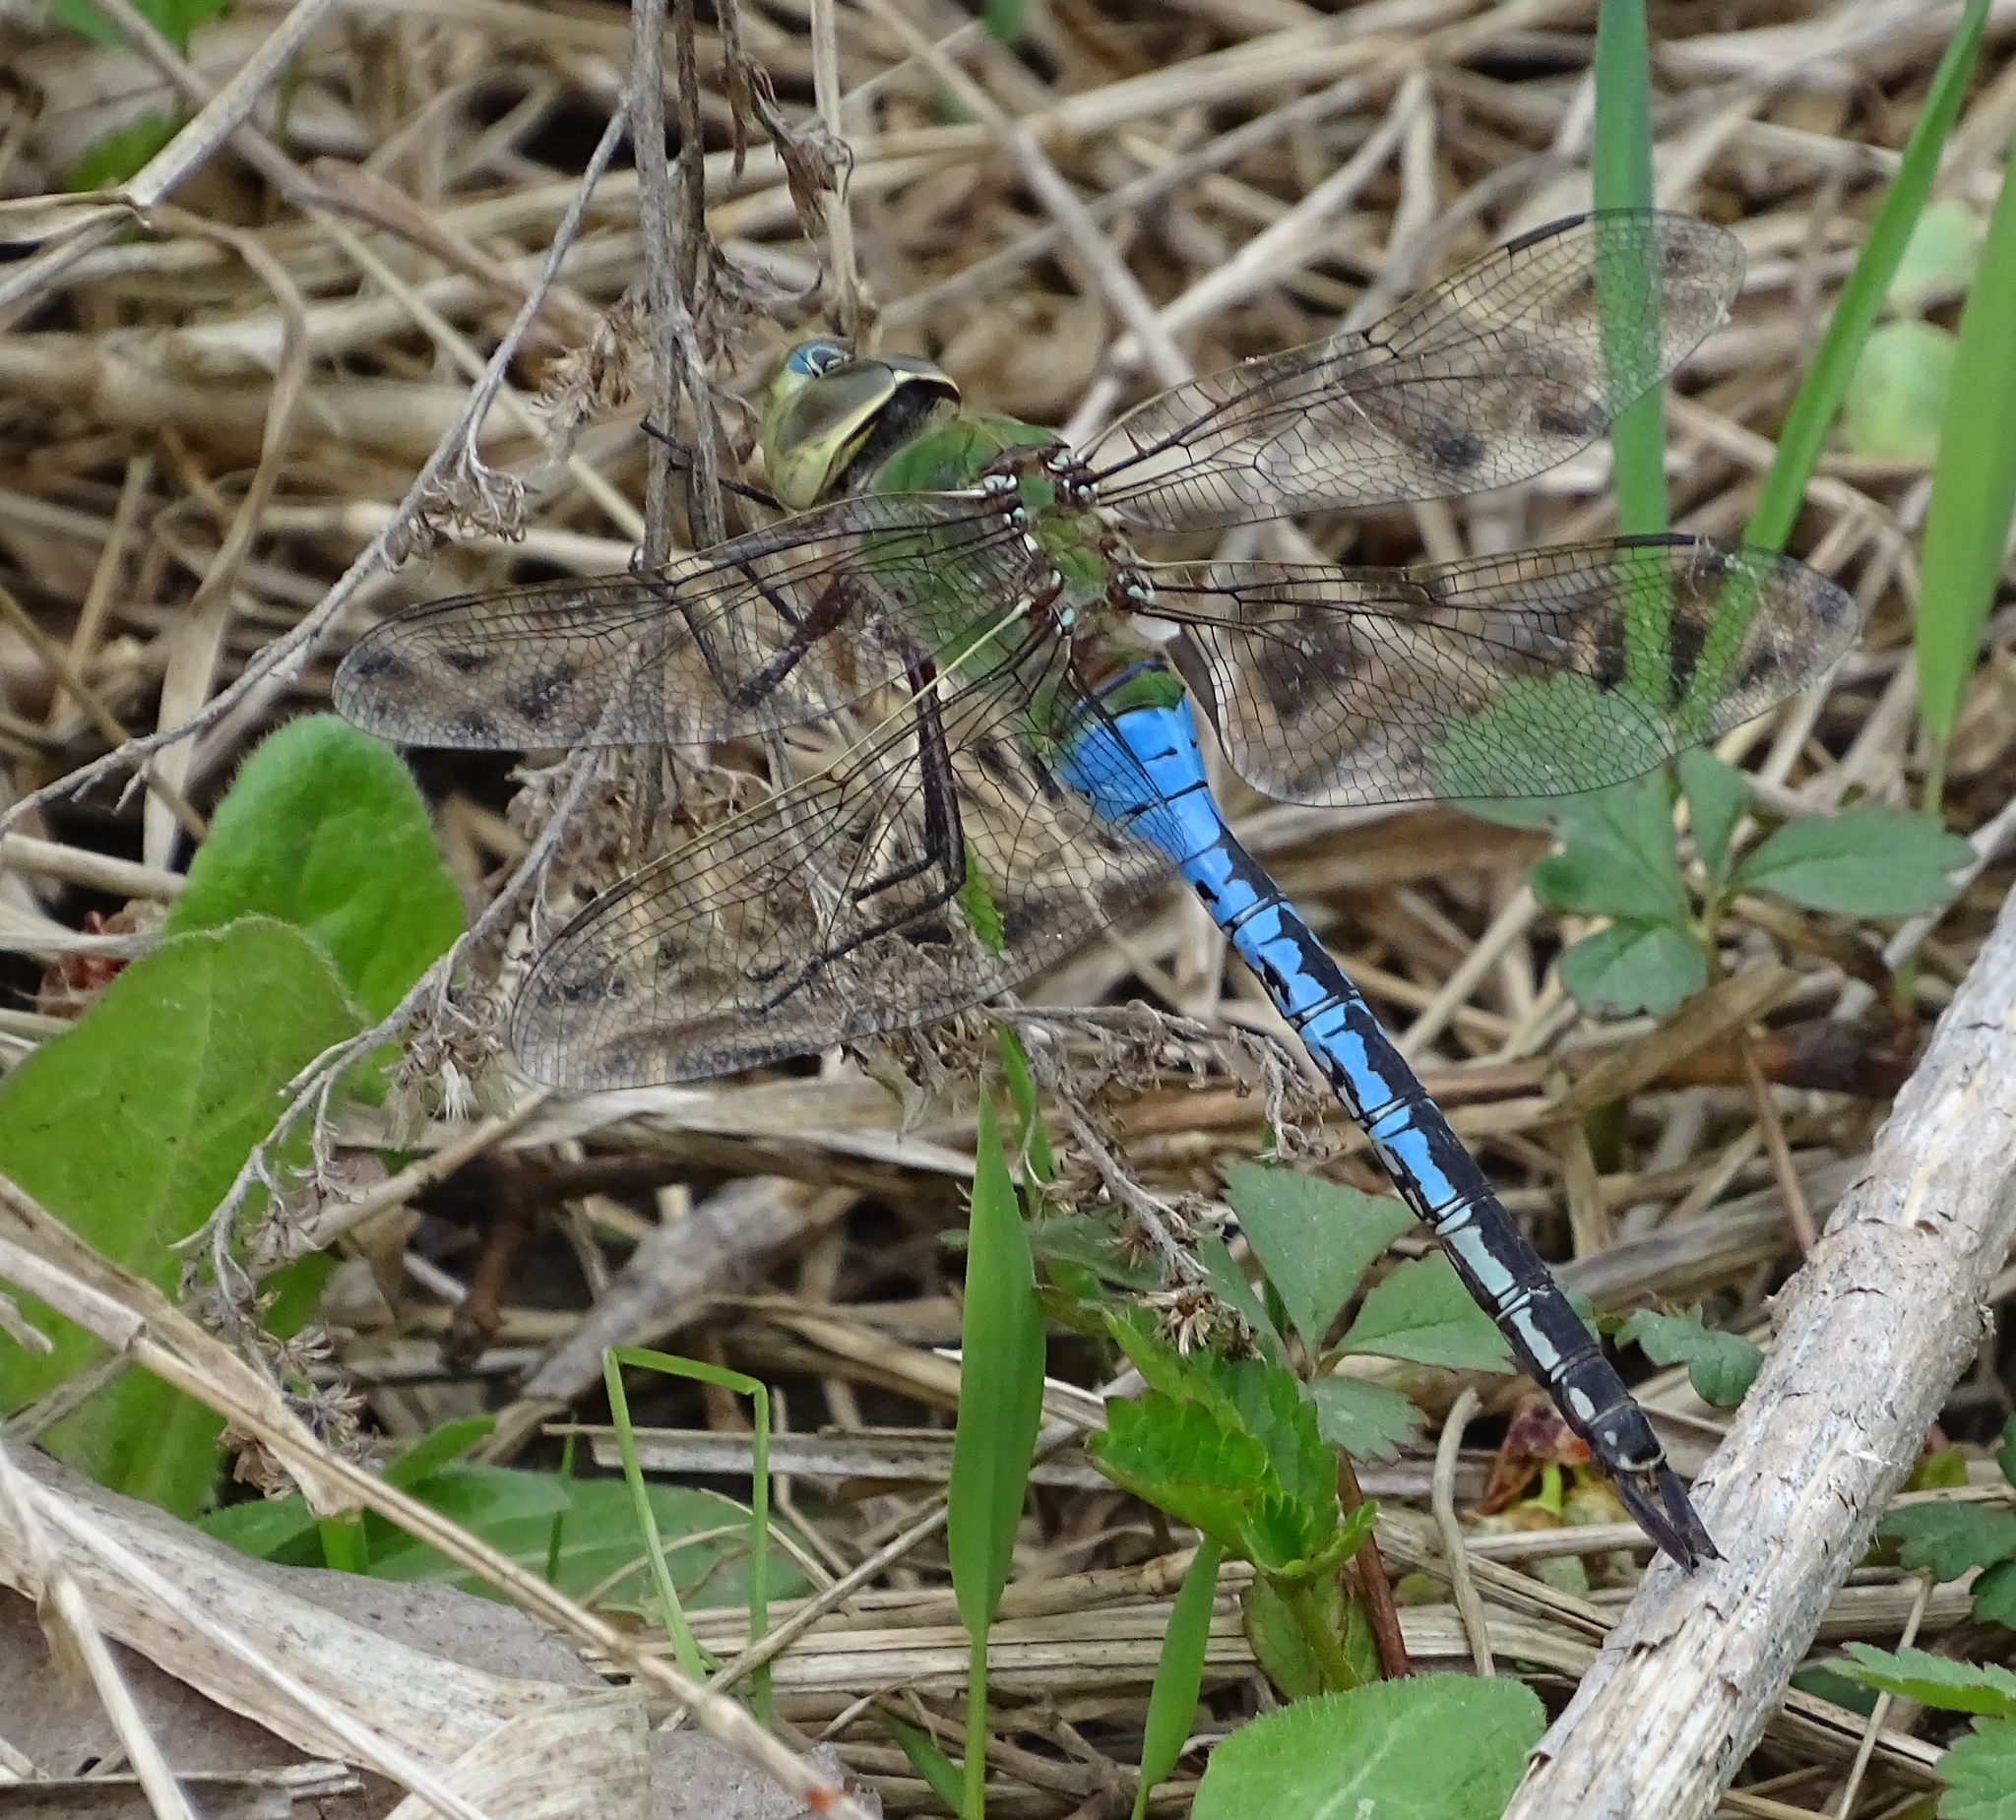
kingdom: Animalia
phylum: Arthropoda
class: Insecta
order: Odonata
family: Aeshnidae
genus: Anax
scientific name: Anax junius
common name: Common green darner
